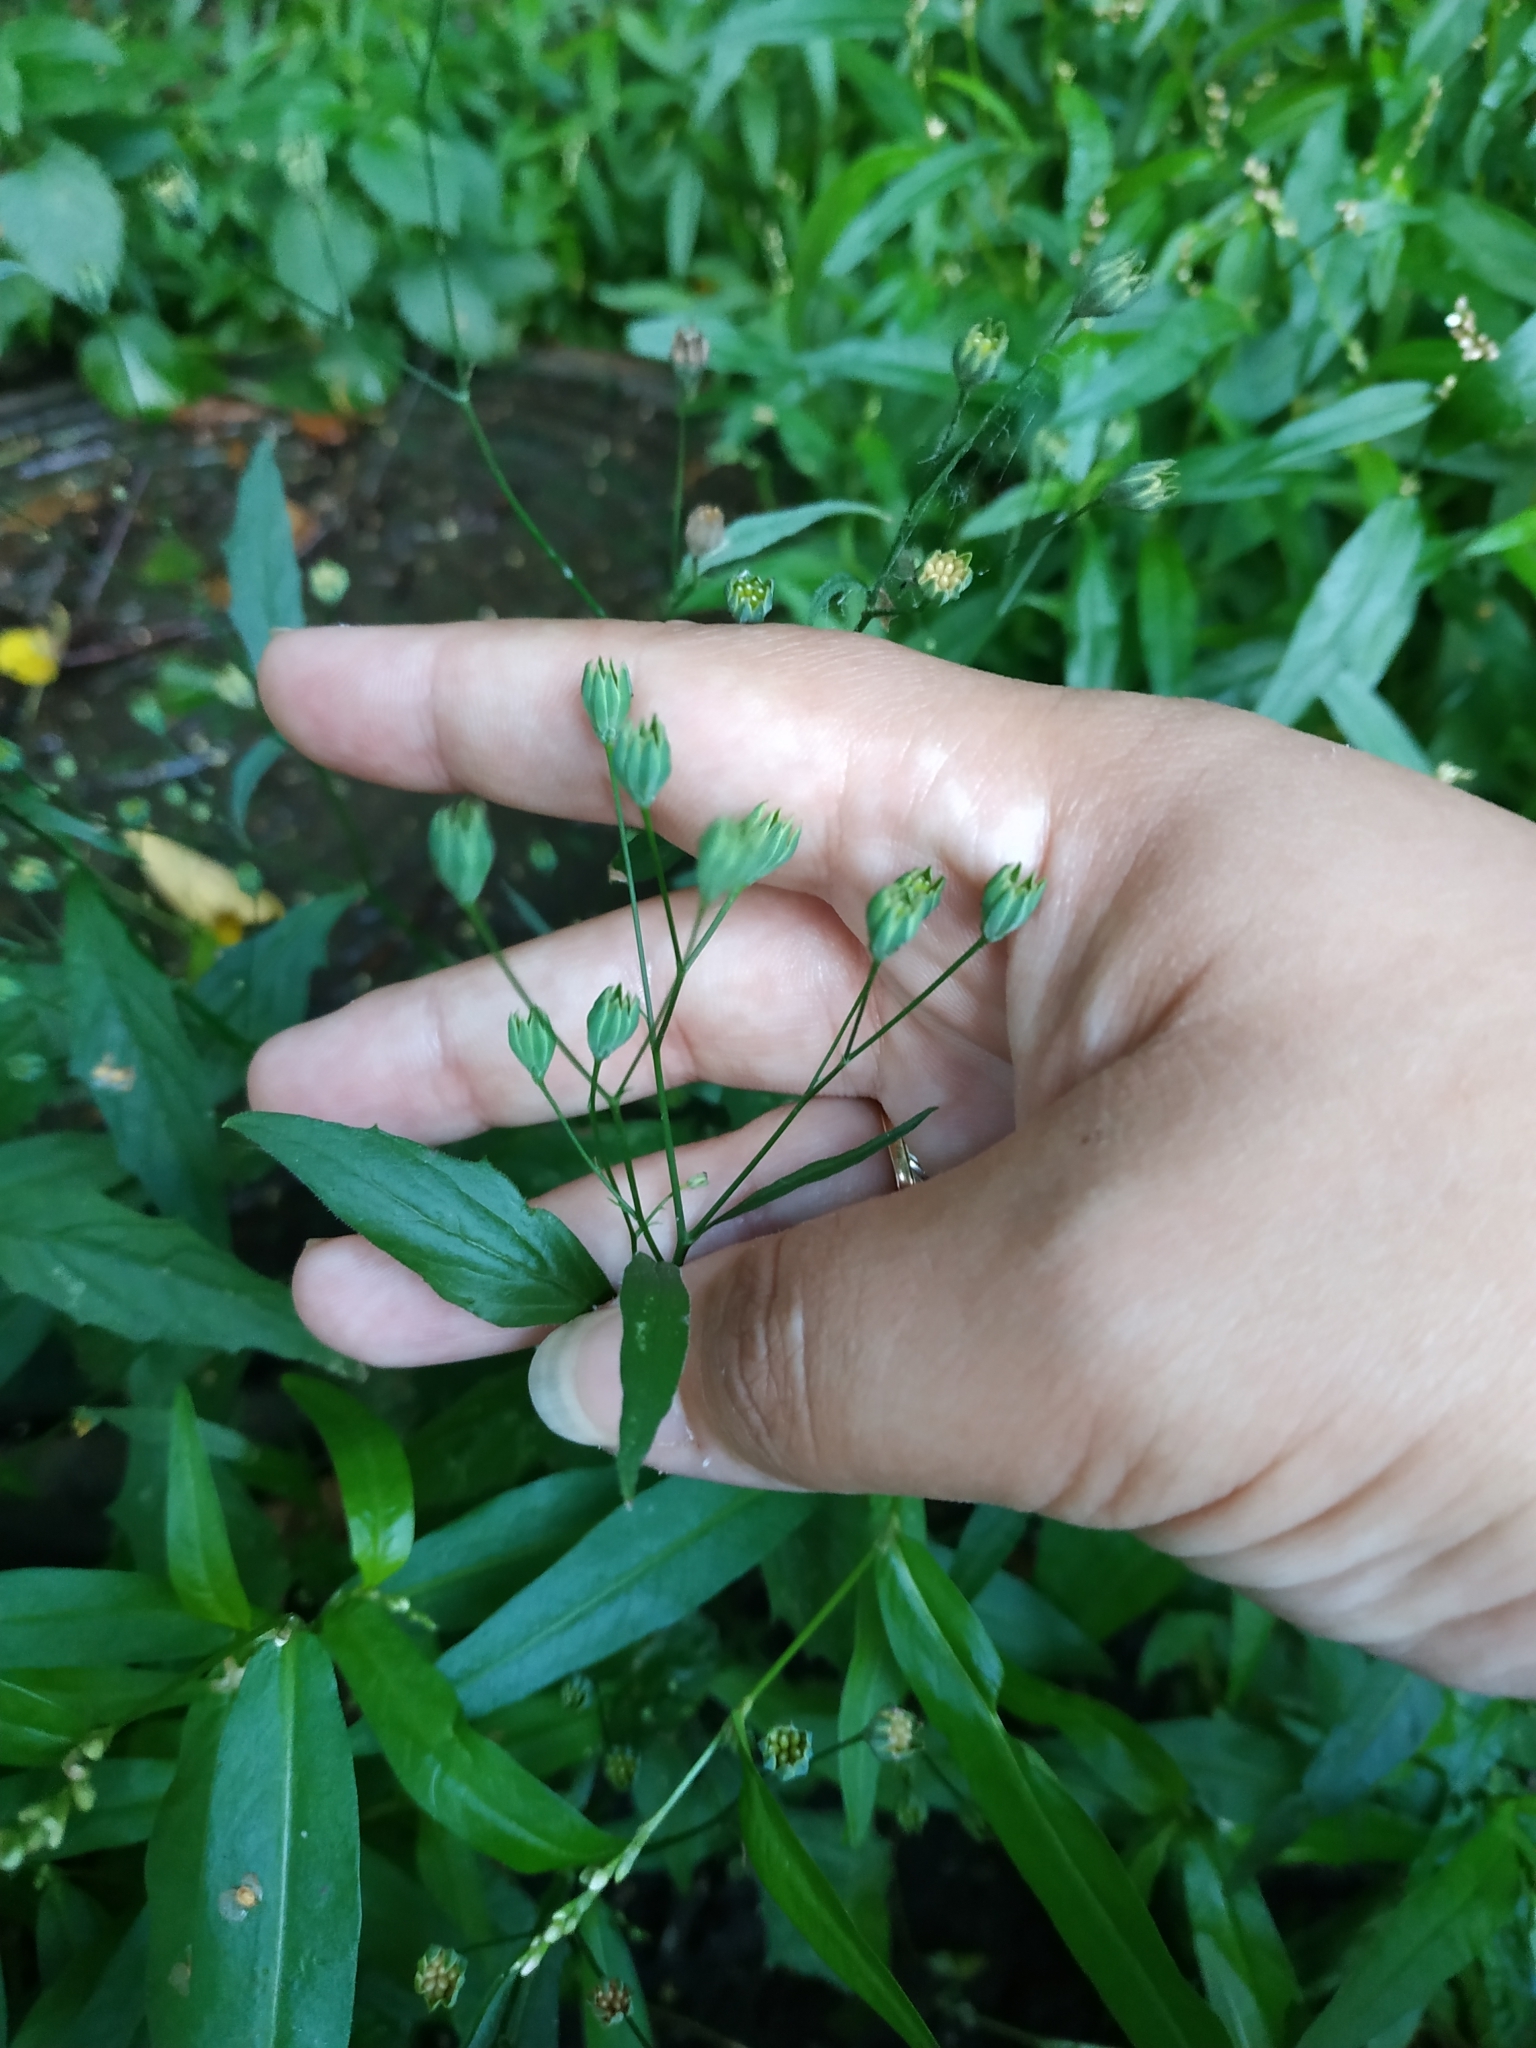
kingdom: Plantae
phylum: Tracheophyta
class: Magnoliopsida
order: Asterales
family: Asteraceae
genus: Lapsana
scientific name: Lapsana communis
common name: Nipplewort
